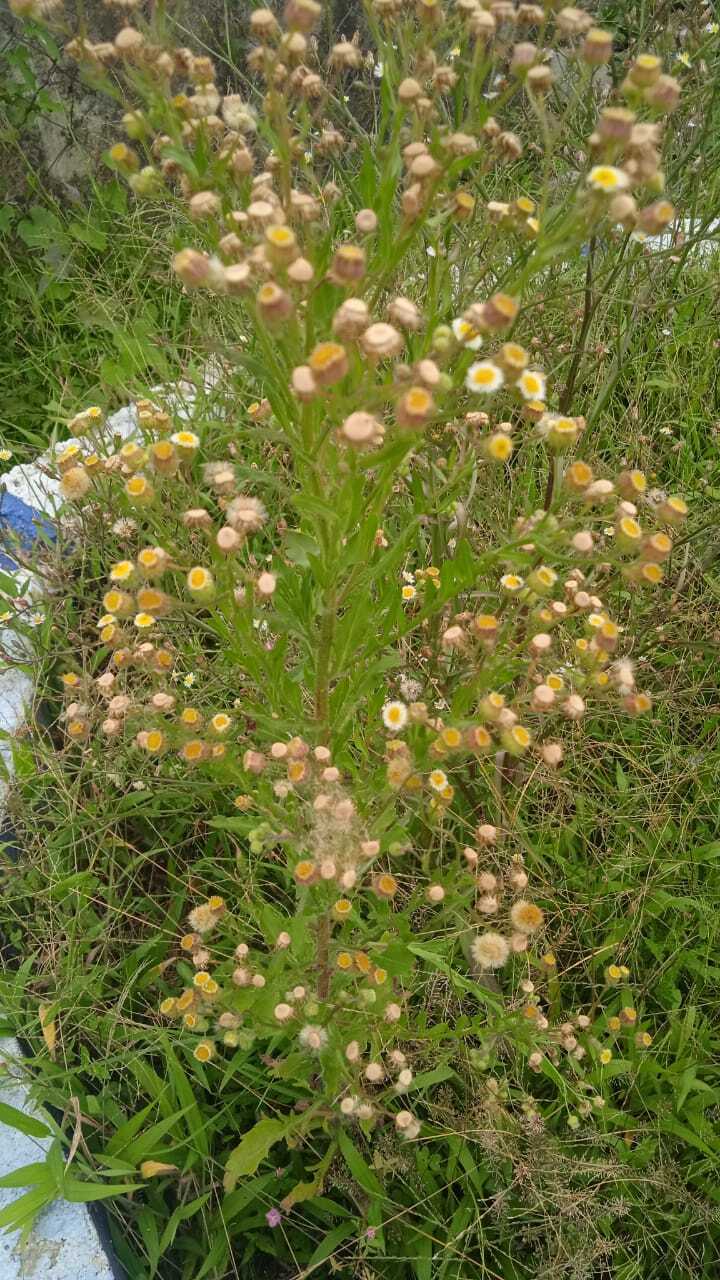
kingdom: Plantae
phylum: Tracheophyta
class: Magnoliopsida
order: Asterales
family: Asteraceae
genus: Erigeron
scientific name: Erigeron sumatrensis
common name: Daisy
